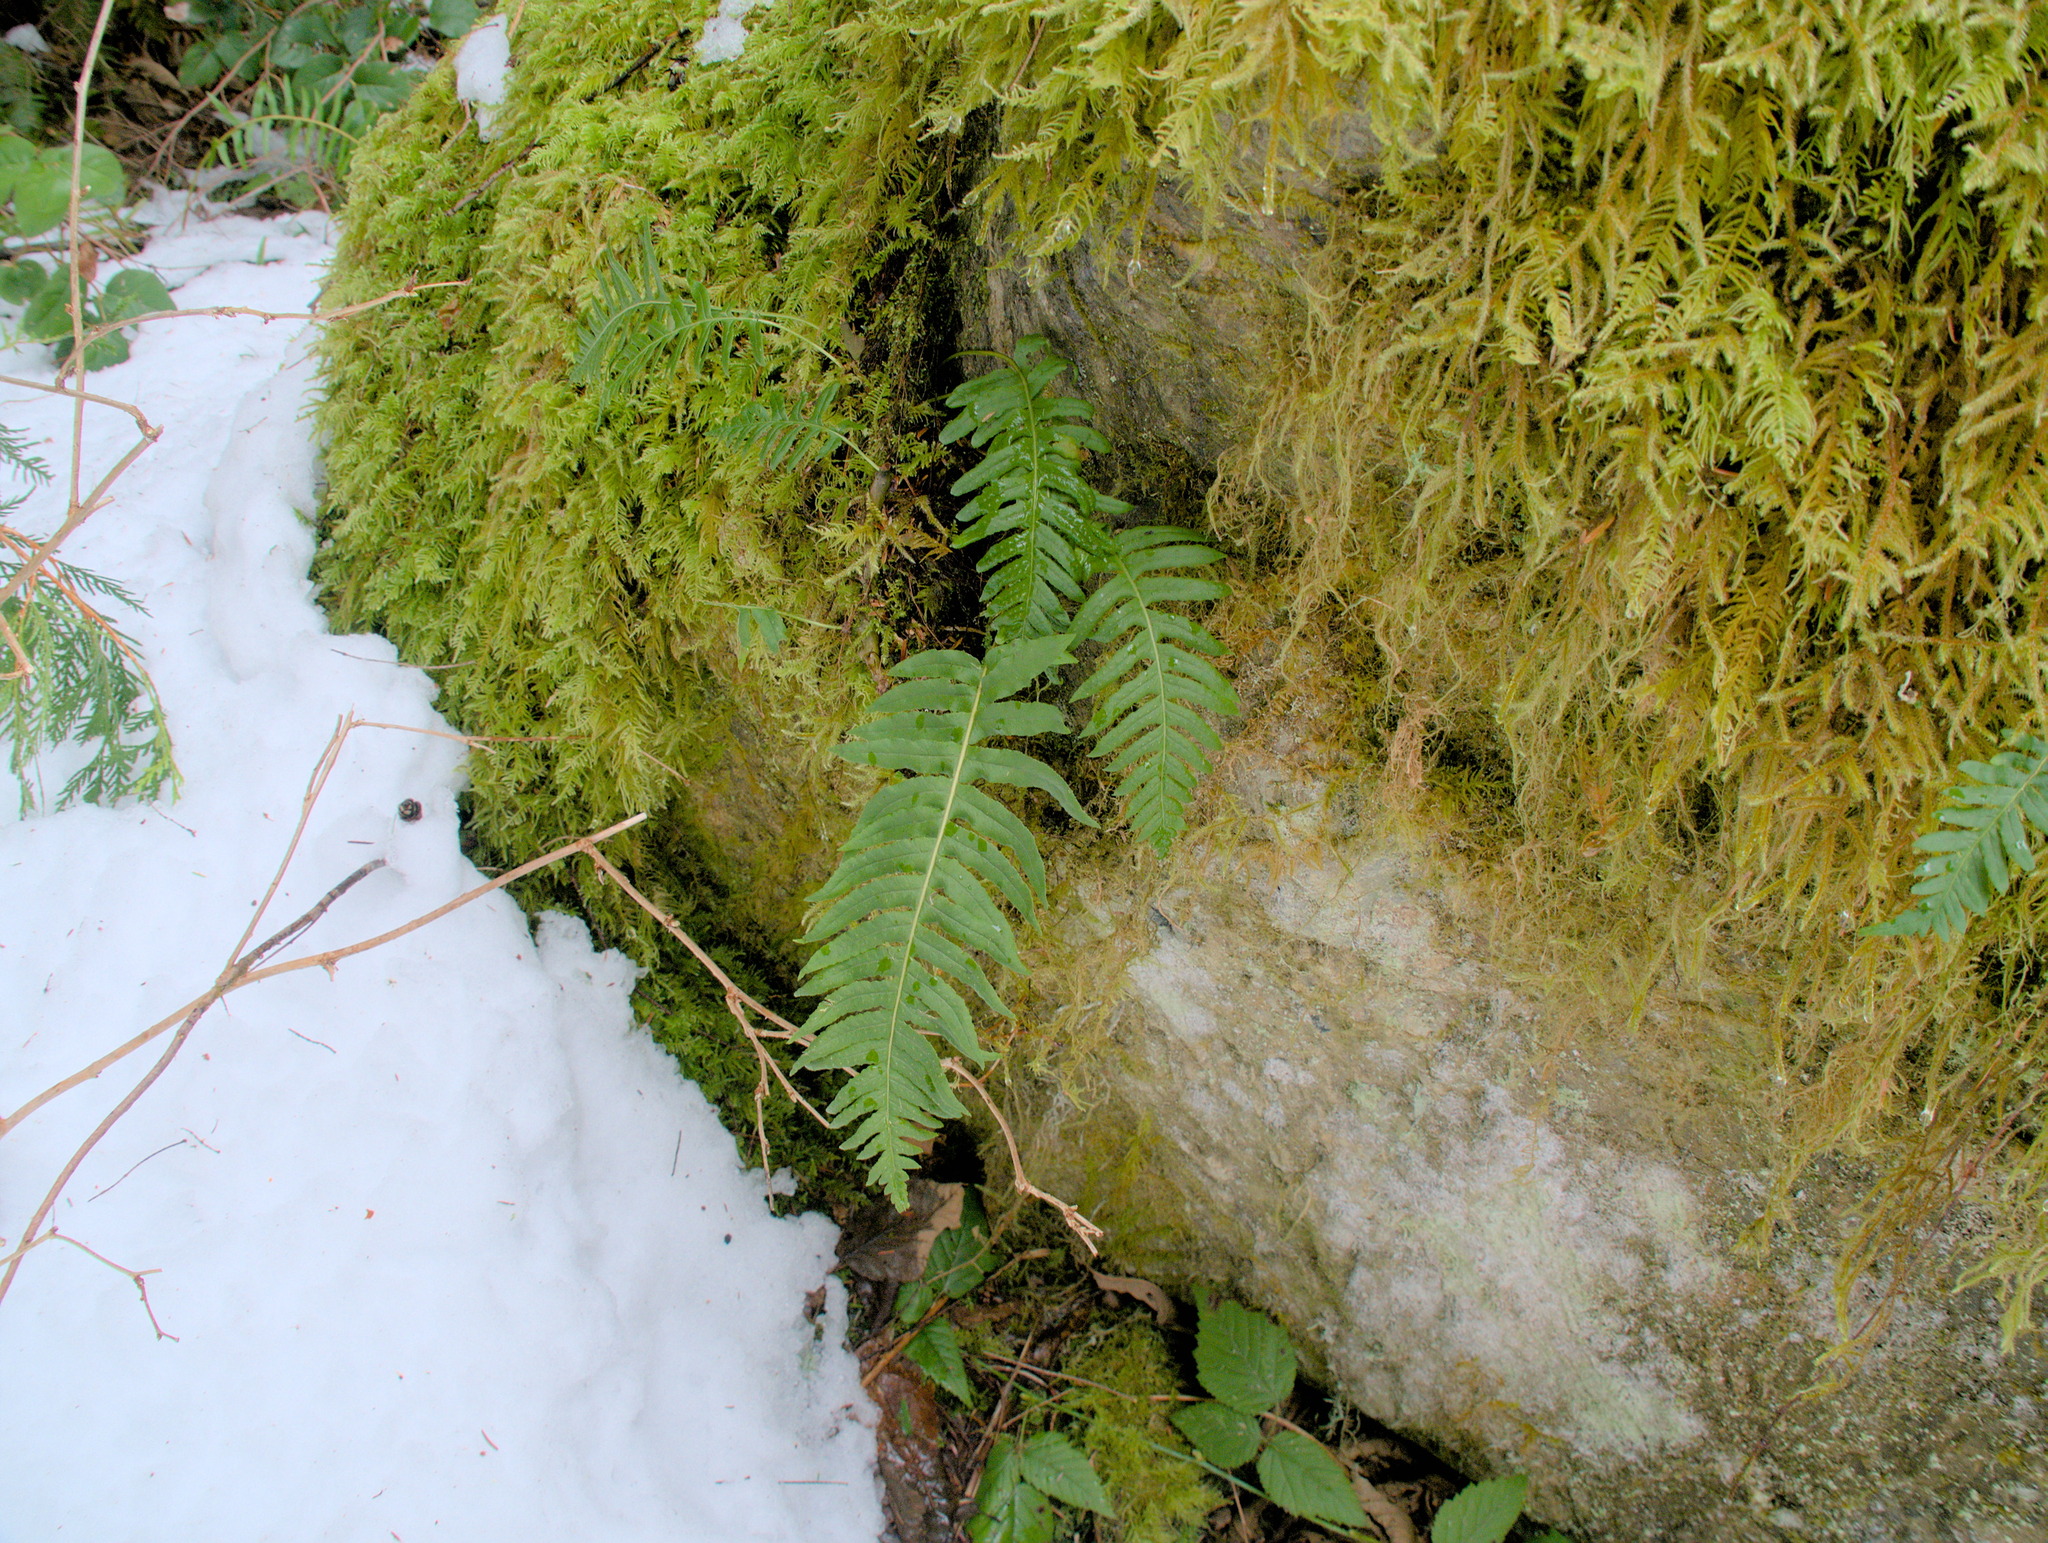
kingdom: Plantae
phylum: Tracheophyta
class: Polypodiopsida
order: Polypodiales
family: Polypodiaceae
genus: Polypodium
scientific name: Polypodium glycyrrhiza
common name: Licorice fern
